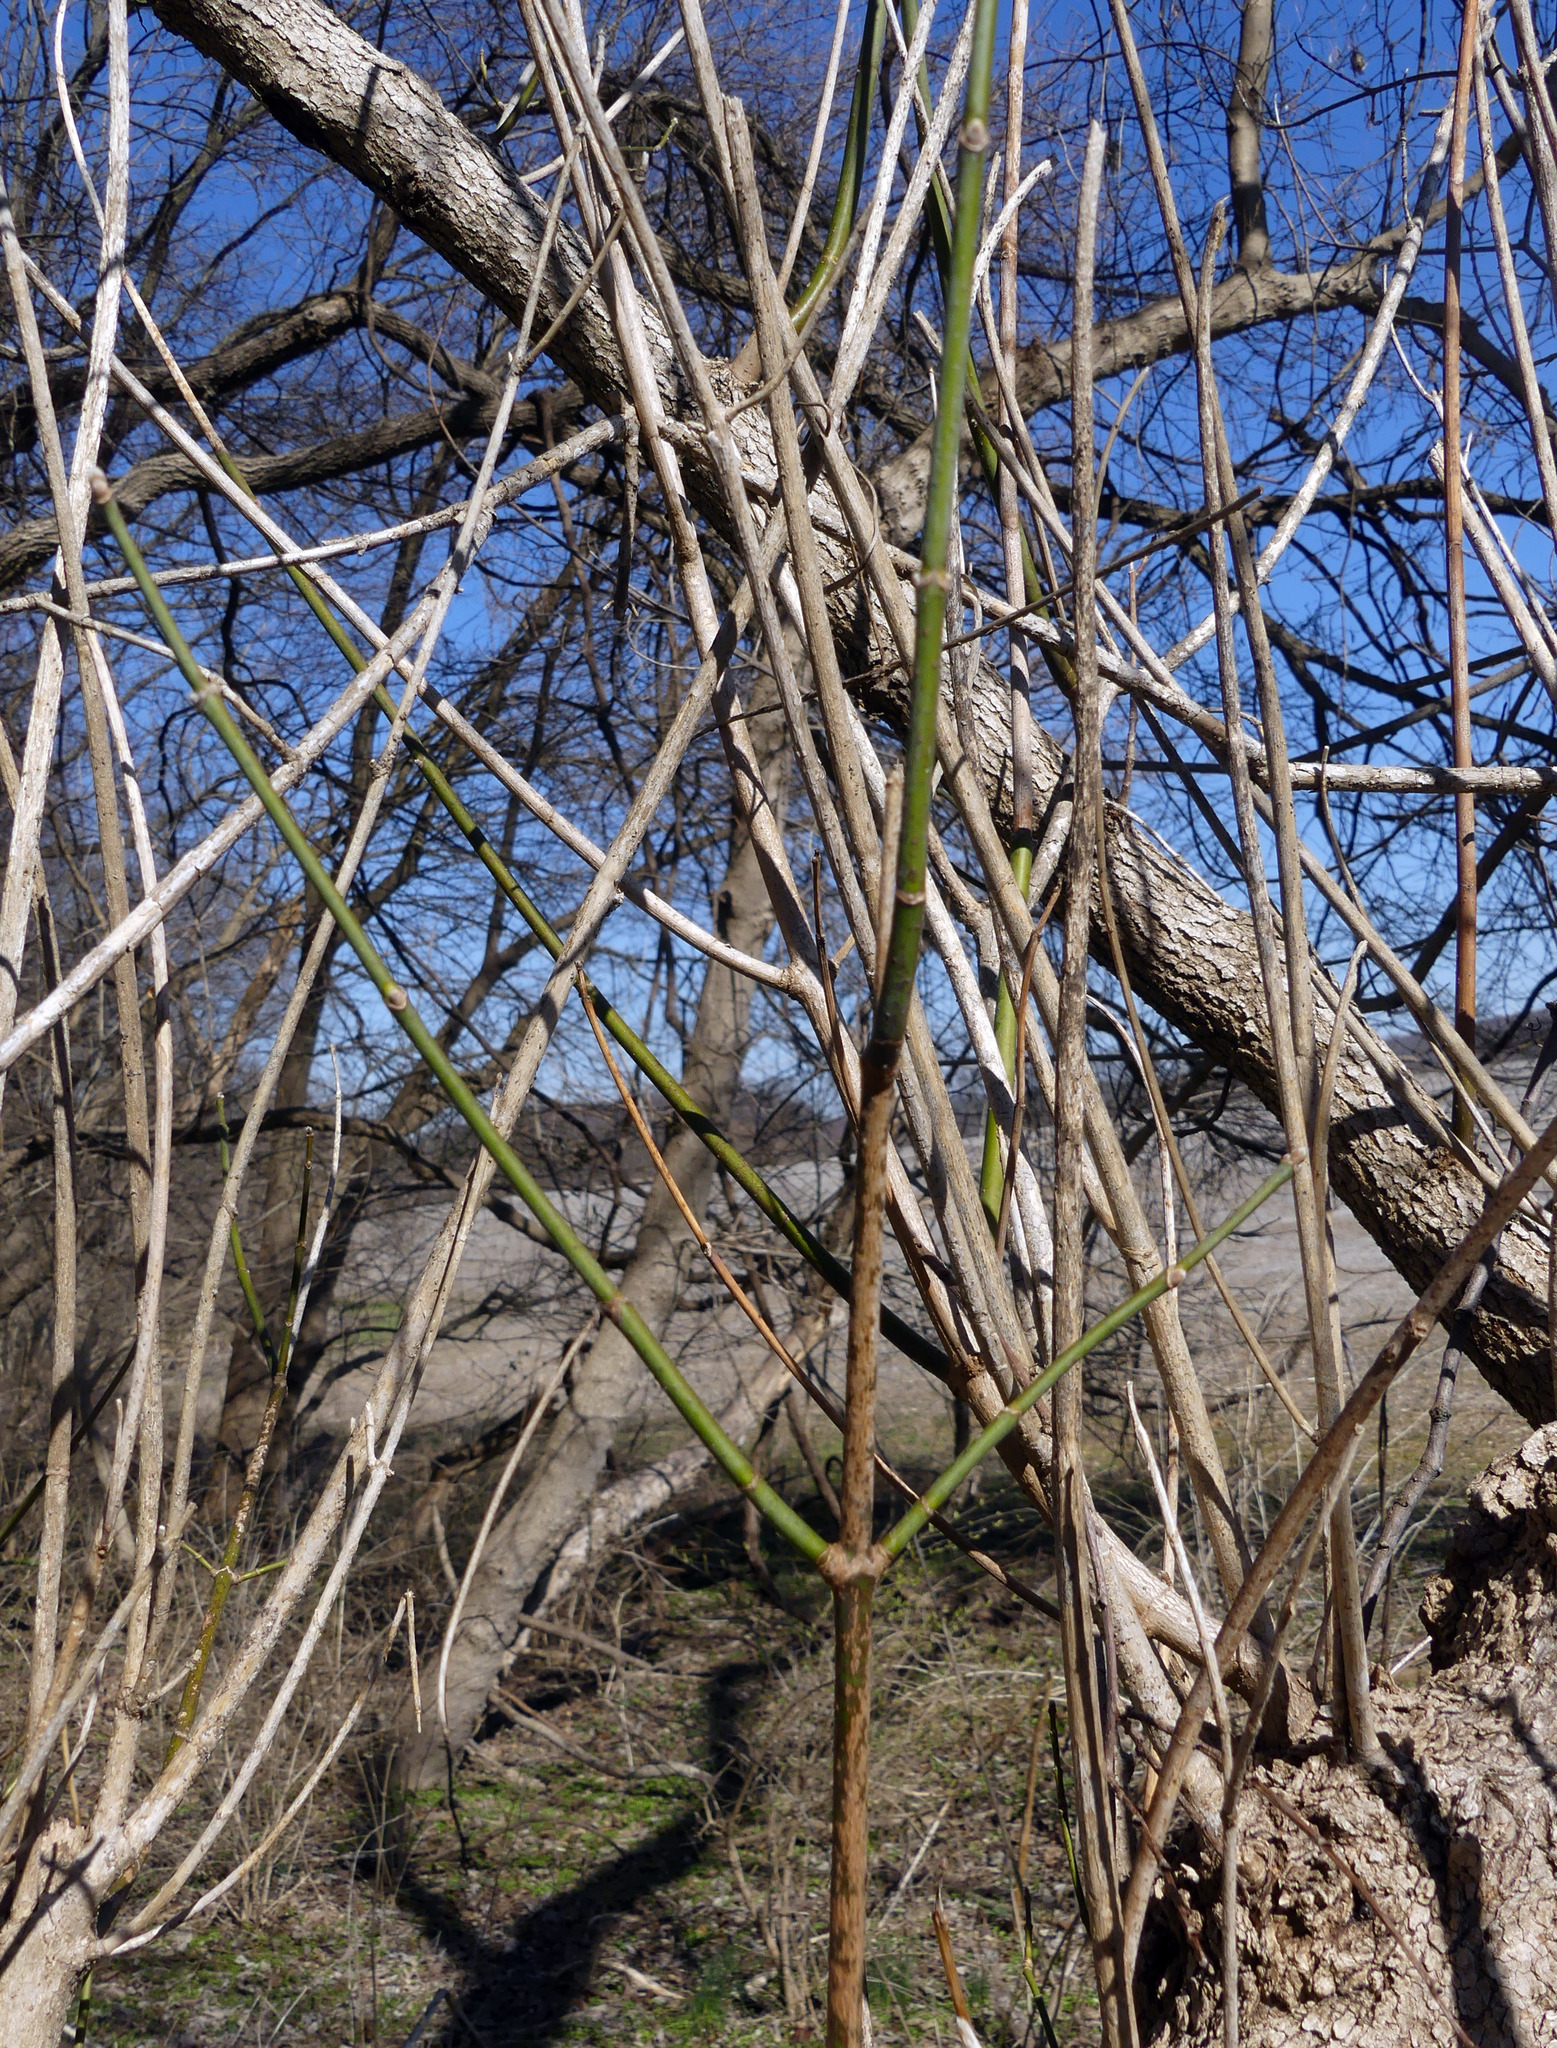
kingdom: Plantae
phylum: Tracheophyta
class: Magnoliopsida
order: Sapindales
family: Sapindaceae
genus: Acer
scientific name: Acer negundo
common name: Ashleaf maple
